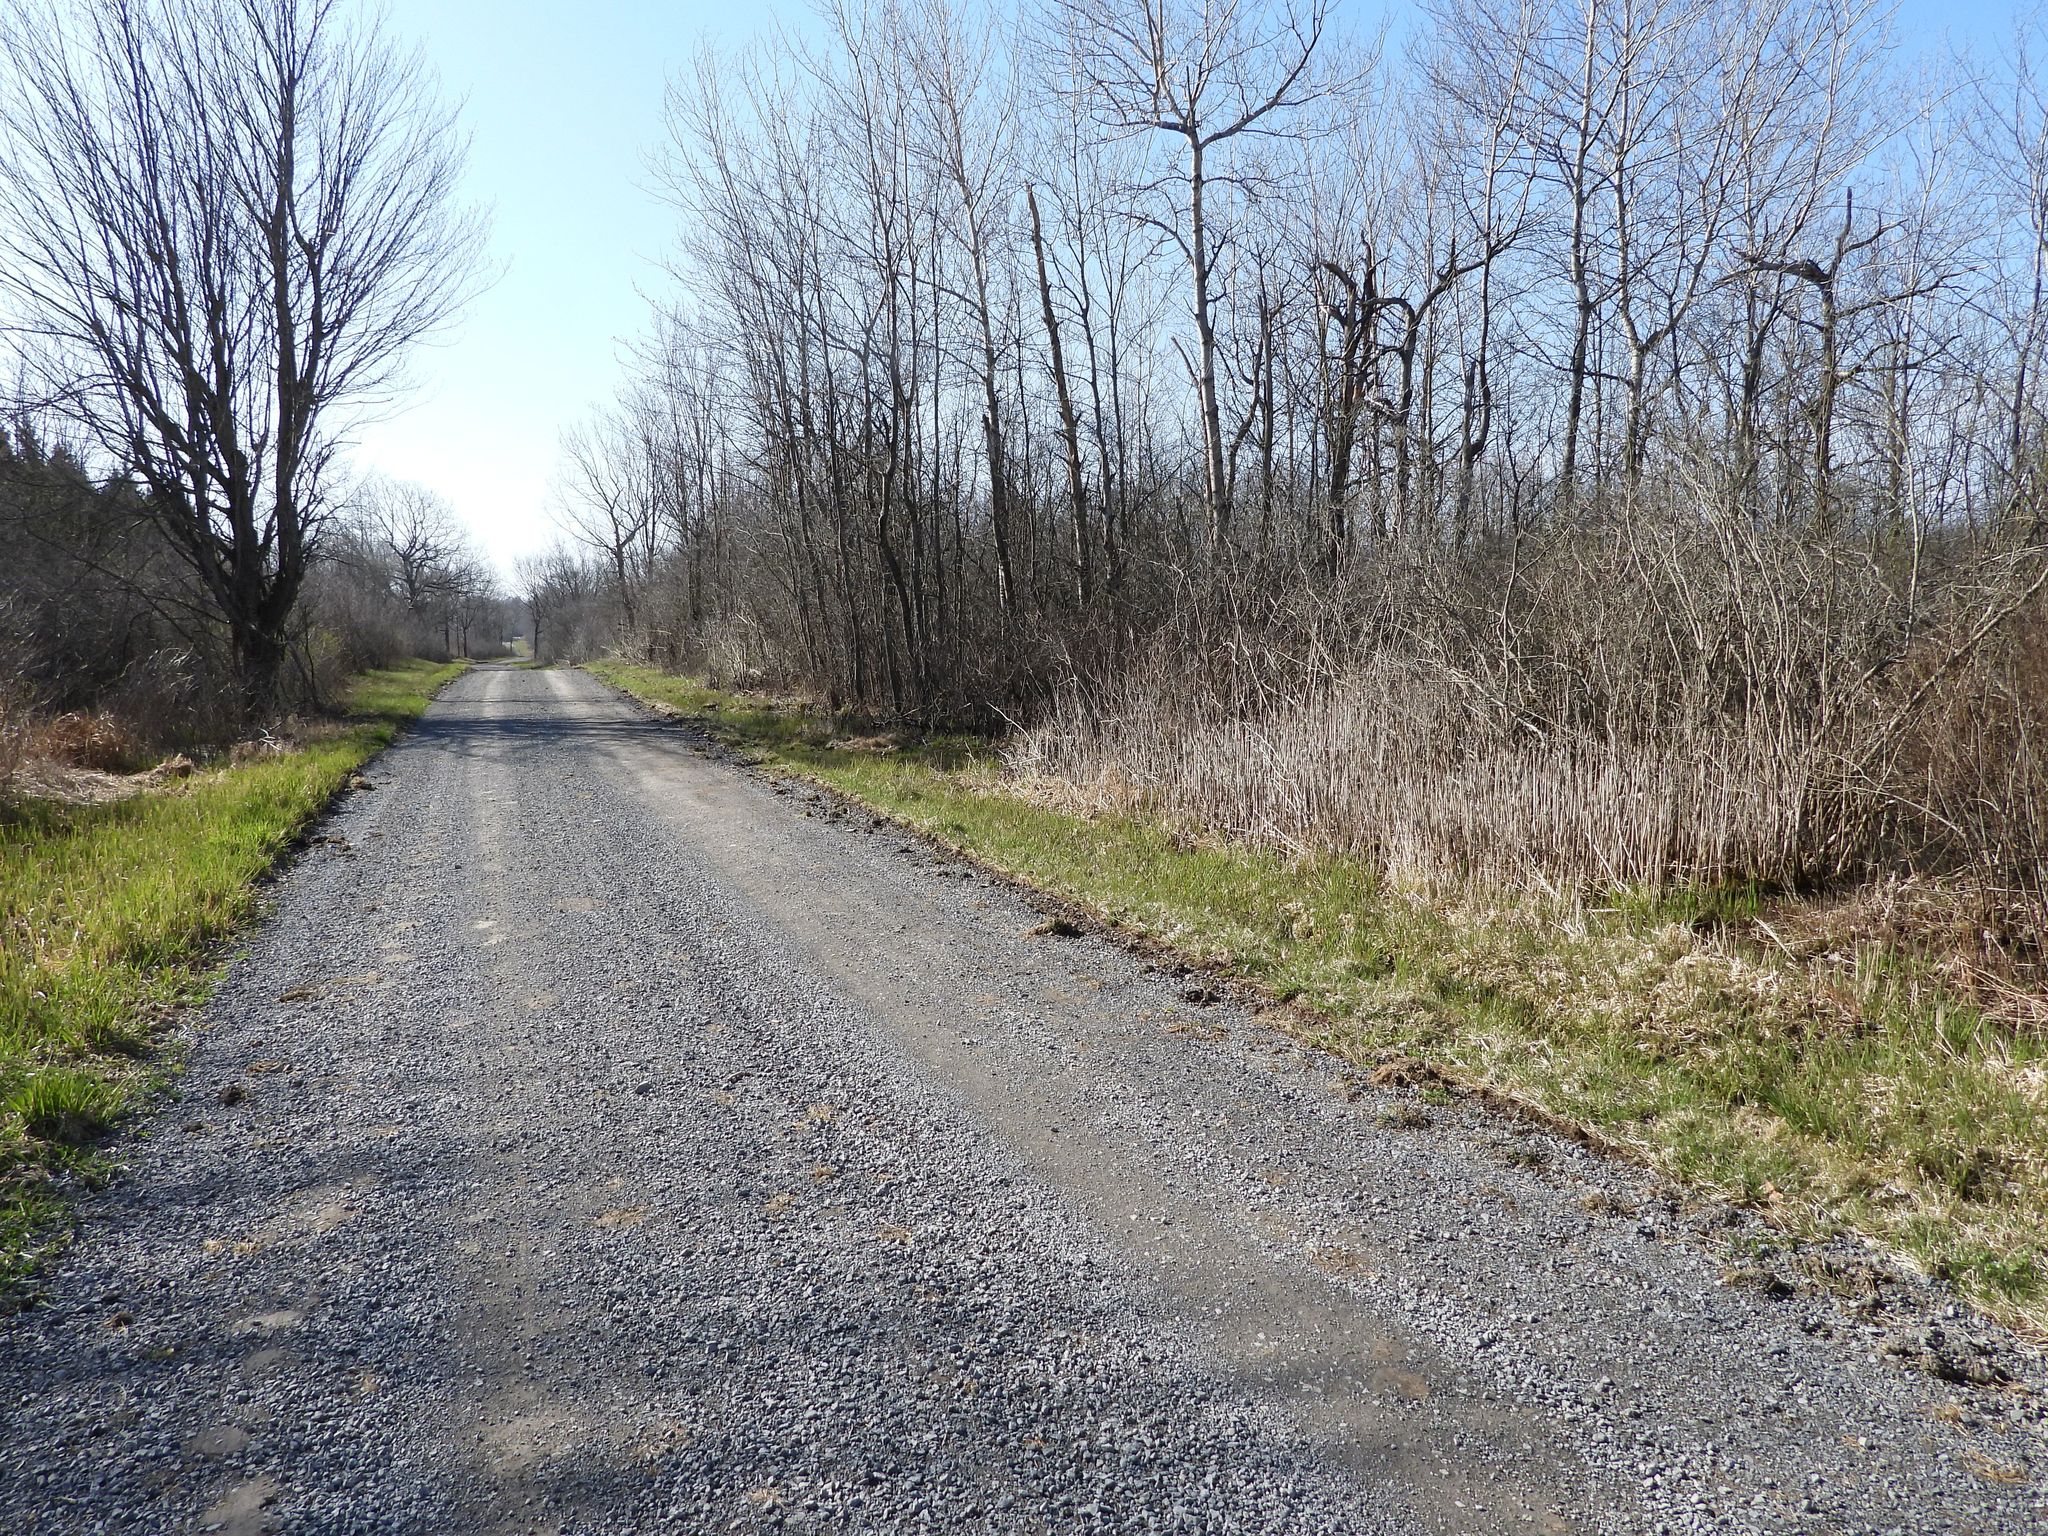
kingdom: Animalia
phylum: Chordata
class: Amphibia
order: Anura
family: Hylidae
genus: Pseudacris
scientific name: Pseudacris crucifer
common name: Spring peeper
